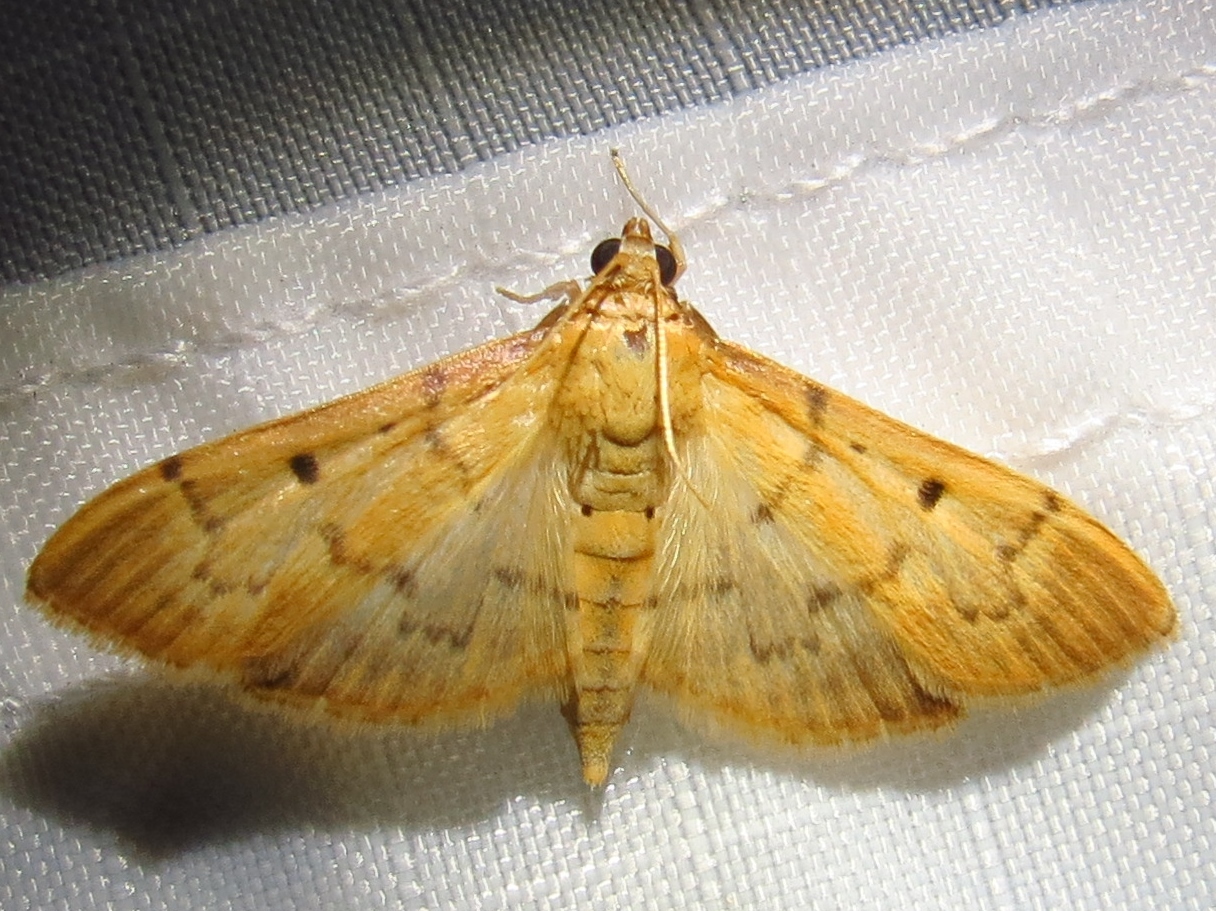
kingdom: Animalia
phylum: Arthropoda
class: Insecta
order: Lepidoptera
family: Crambidae
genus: Herpetogramma
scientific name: Herpetogramma bipunctalis
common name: Southern beet webworm
